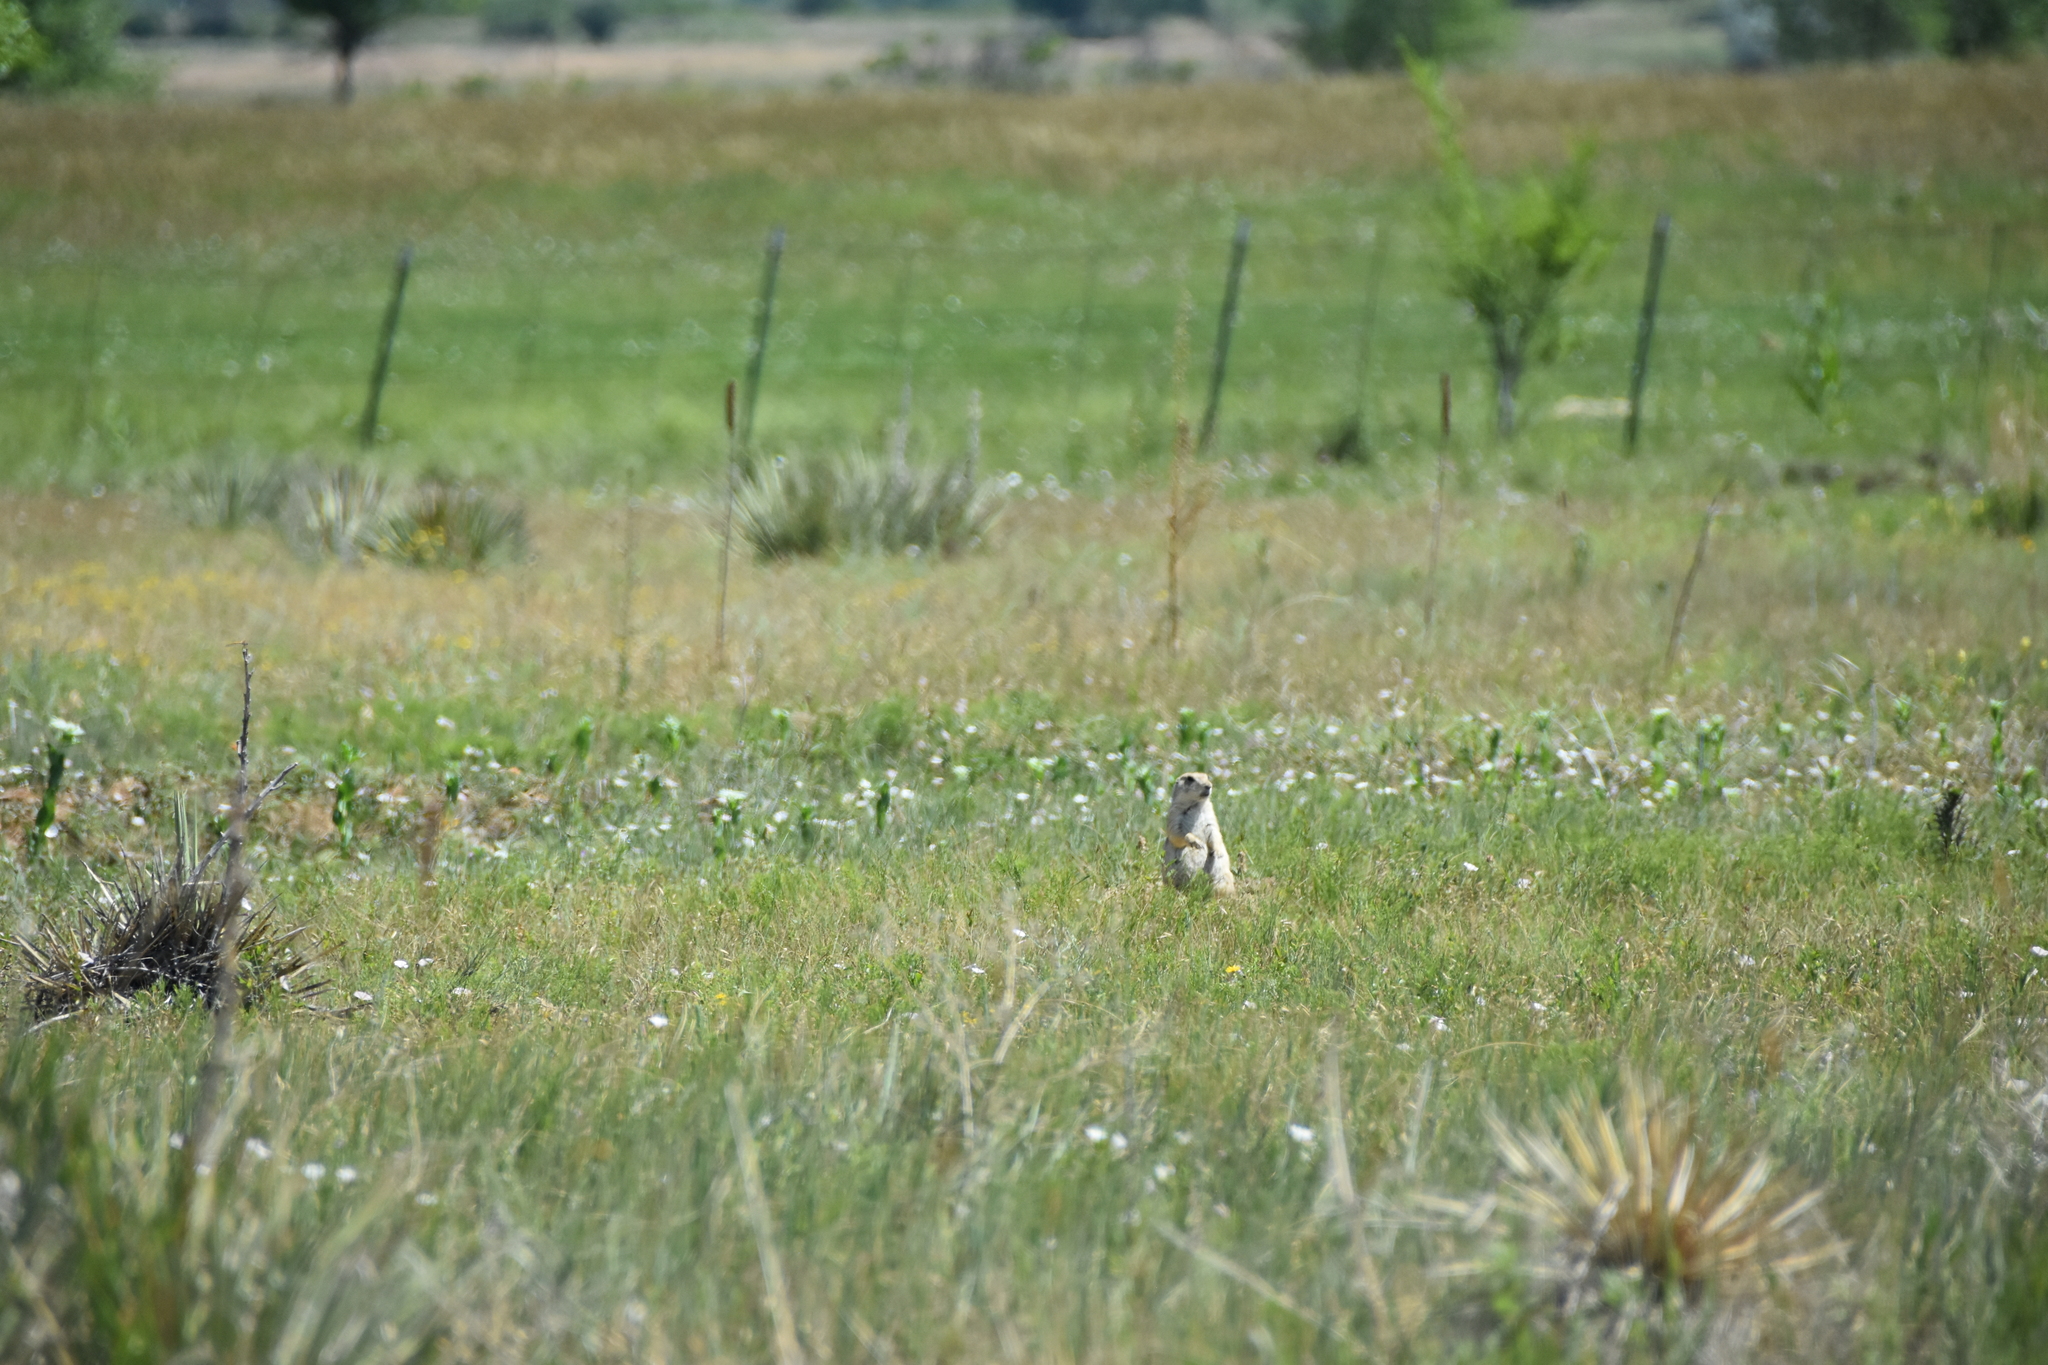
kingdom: Animalia
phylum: Chordata
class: Mammalia
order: Rodentia
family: Sciuridae
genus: Cynomys
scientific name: Cynomys ludovicianus
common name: Black-tailed prairie dog
